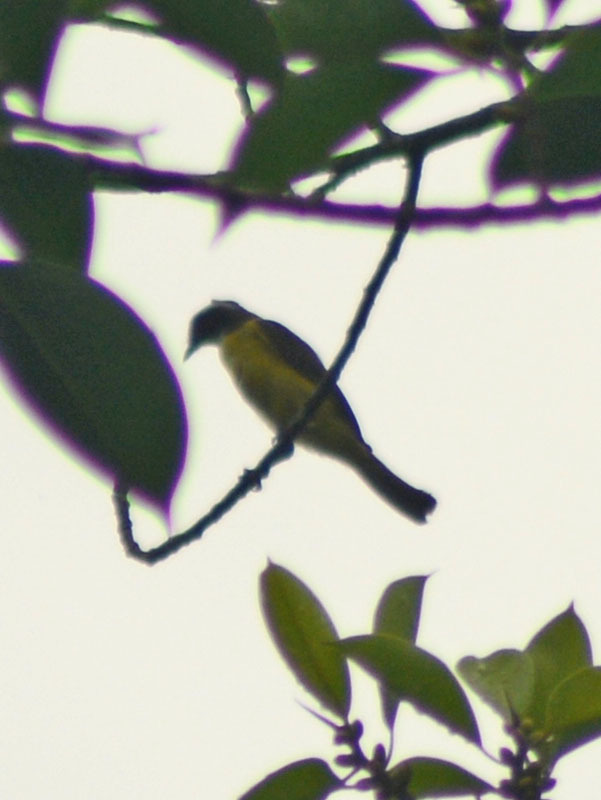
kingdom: Animalia
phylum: Chordata
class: Aves
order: Passeriformes
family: Tyrannidae
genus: Myiozetetes
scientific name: Myiozetetes similis
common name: Social flycatcher
